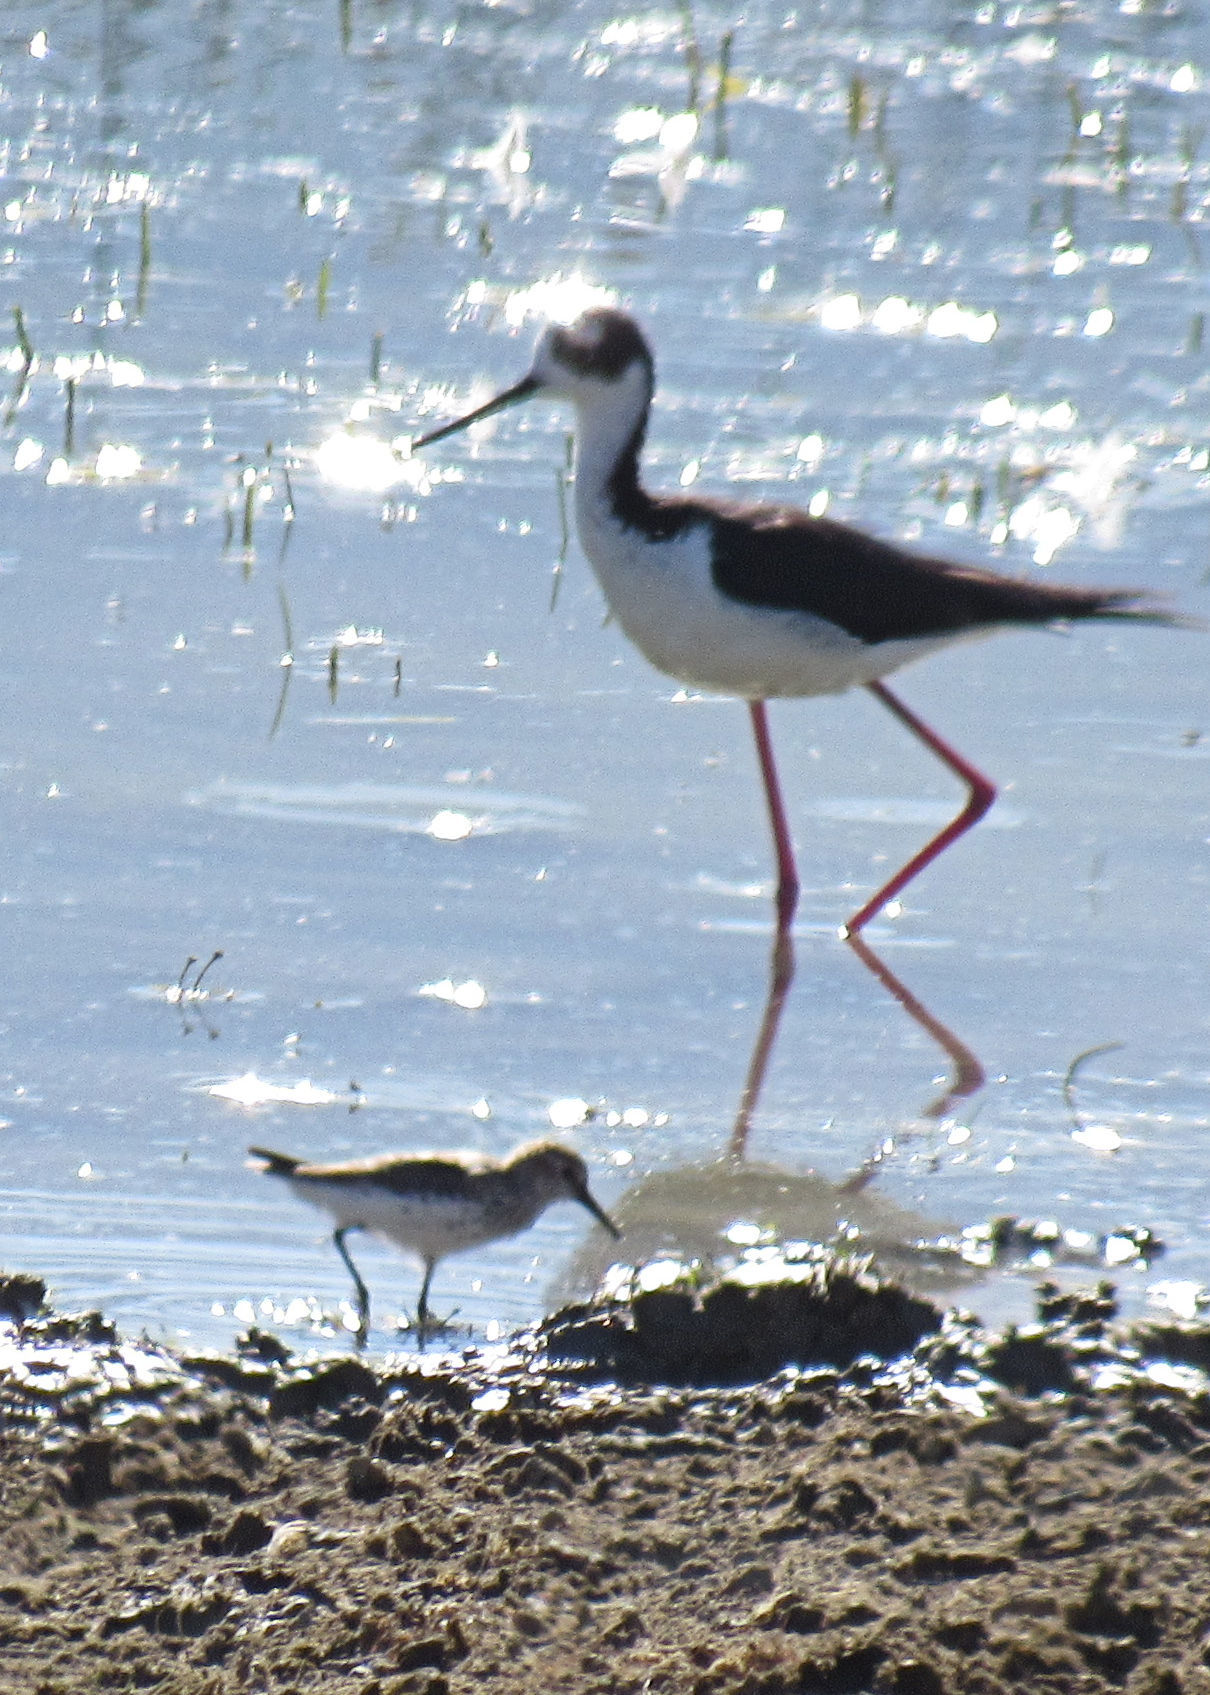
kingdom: Animalia
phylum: Chordata
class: Aves
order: Charadriiformes
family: Recurvirostridae
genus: Himantopus
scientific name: Himantopus mexicanus
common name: Black-necked stilt
